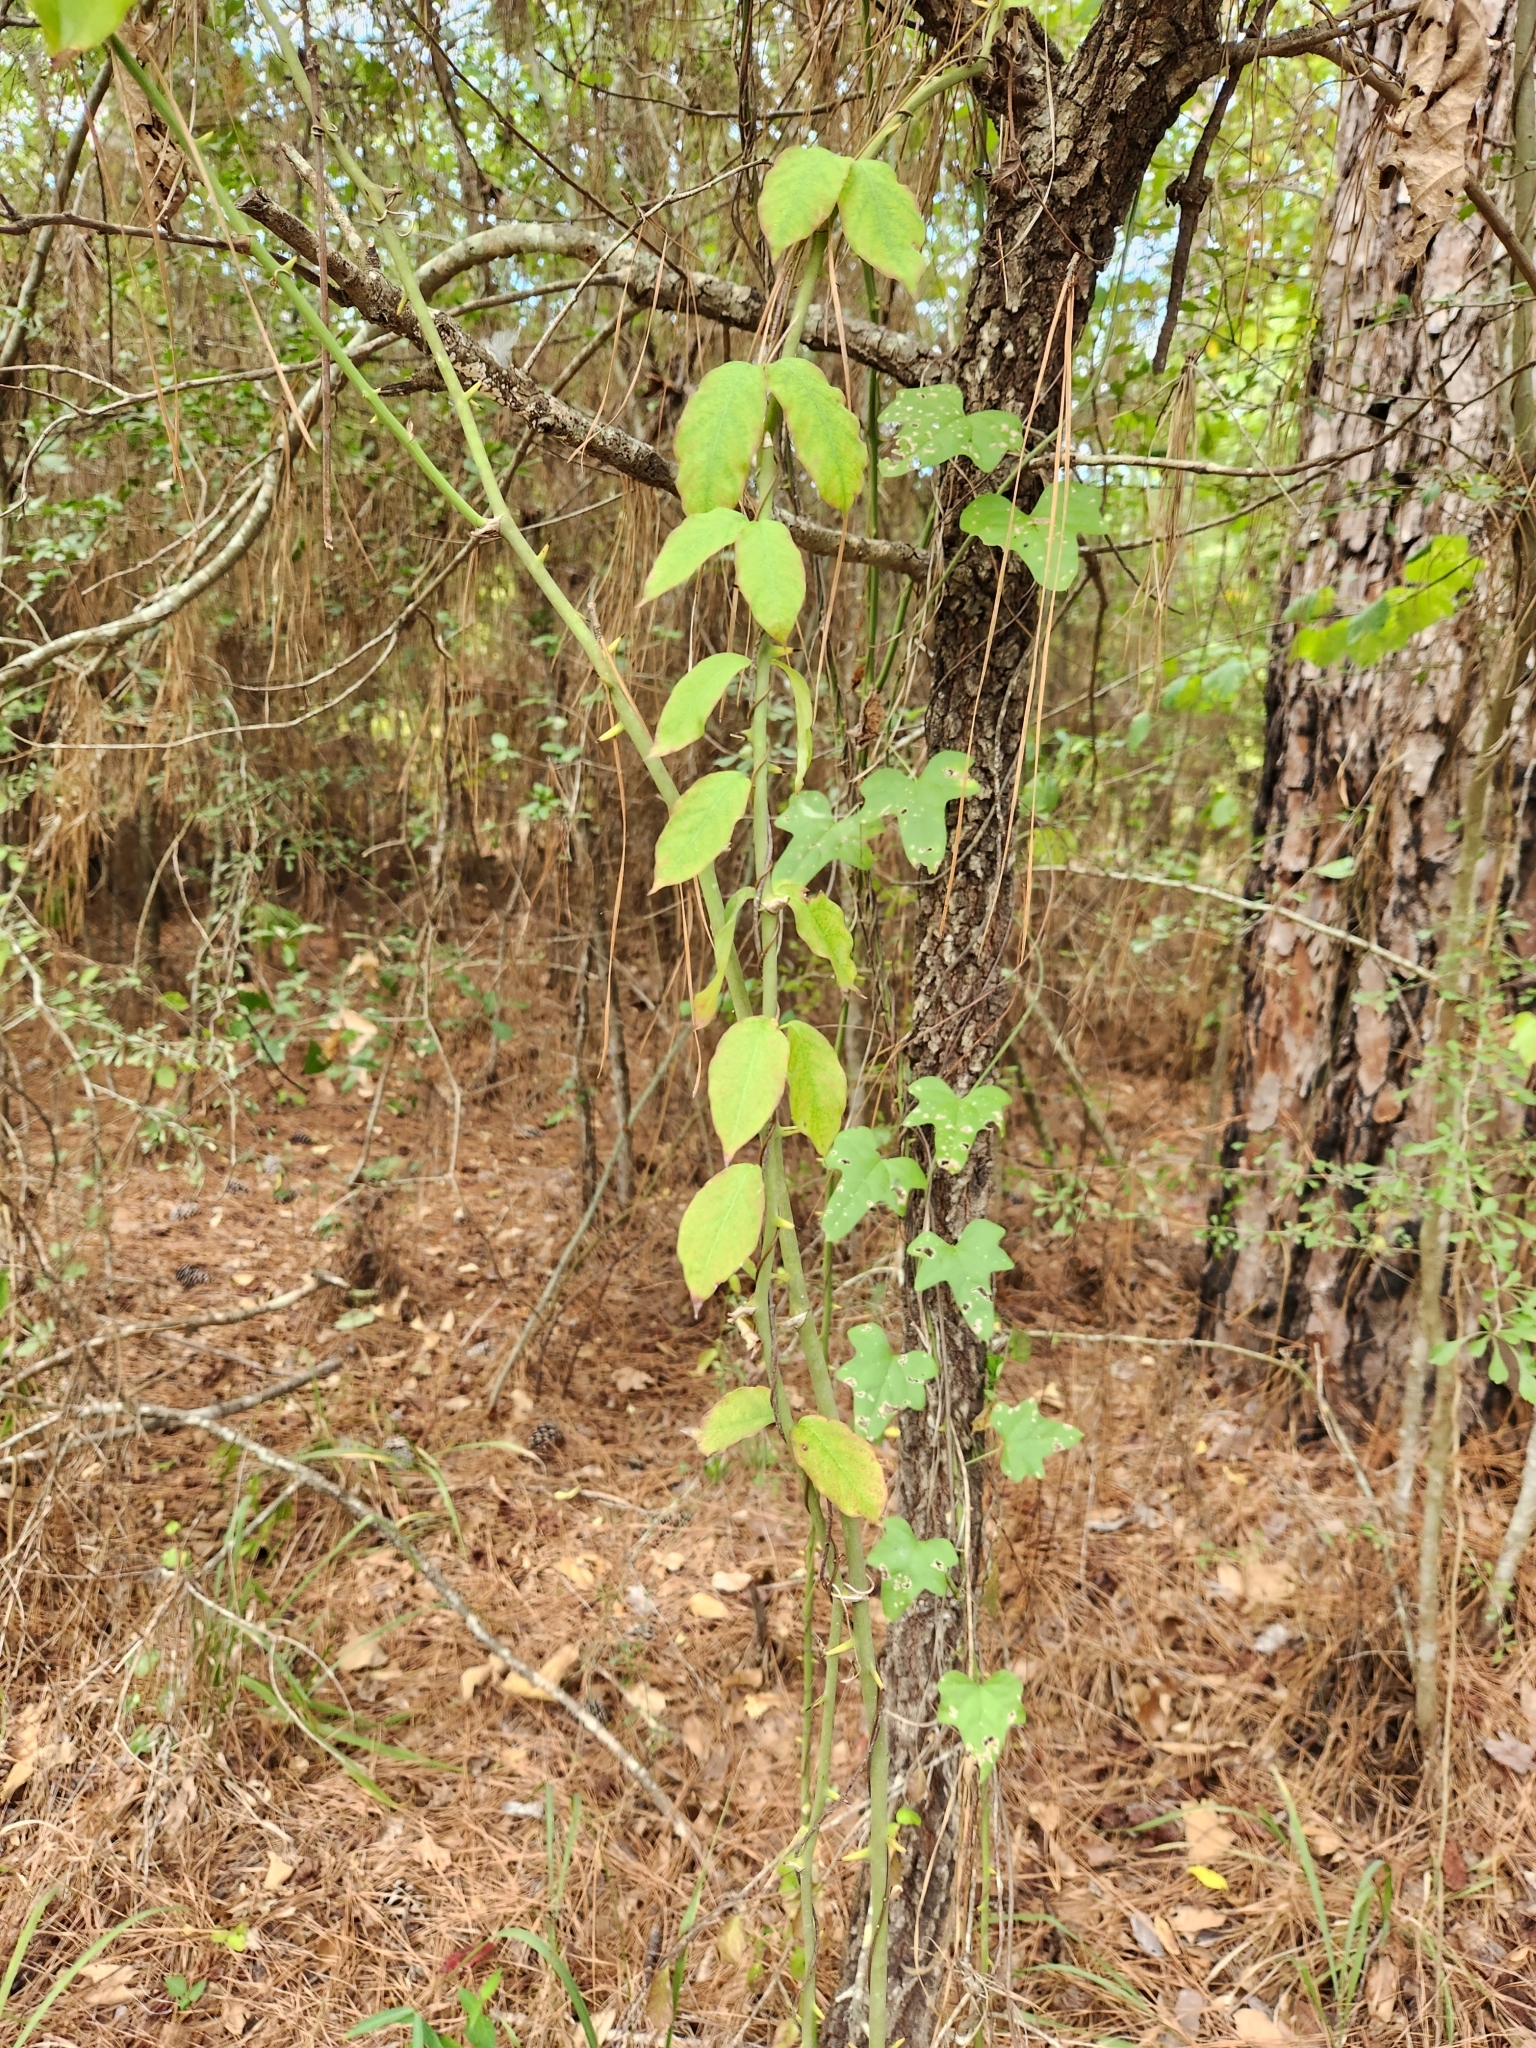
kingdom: Plantae
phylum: Tracheophyta
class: Magnoliopsida
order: Gentianales
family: Apocynaceae
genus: Thyrsanthella
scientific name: Thyrsanthella difformis
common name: Climbing dogbane
